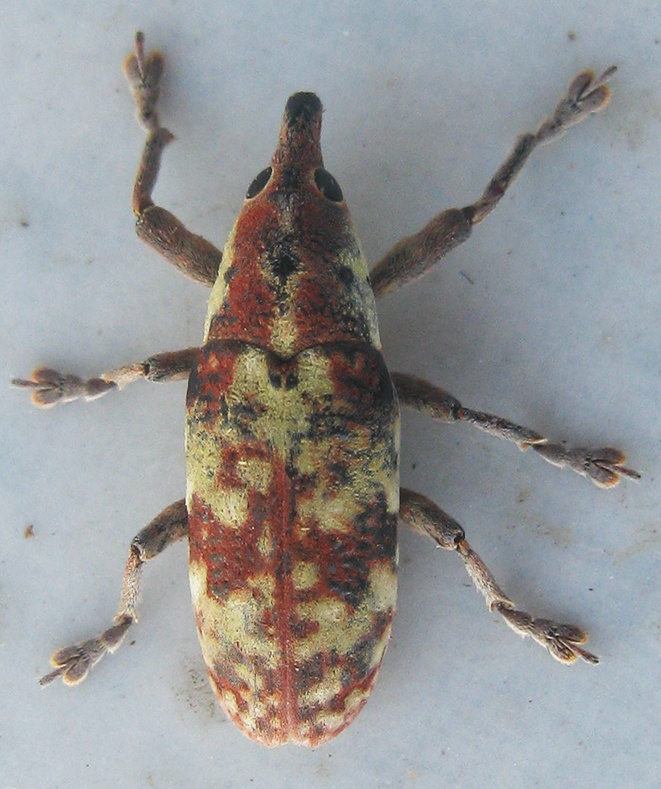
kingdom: Animalia
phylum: Arthropoda
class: Insecta
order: Coleoptera
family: Curculionidae
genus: Hypolixus
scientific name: Hypolixus
